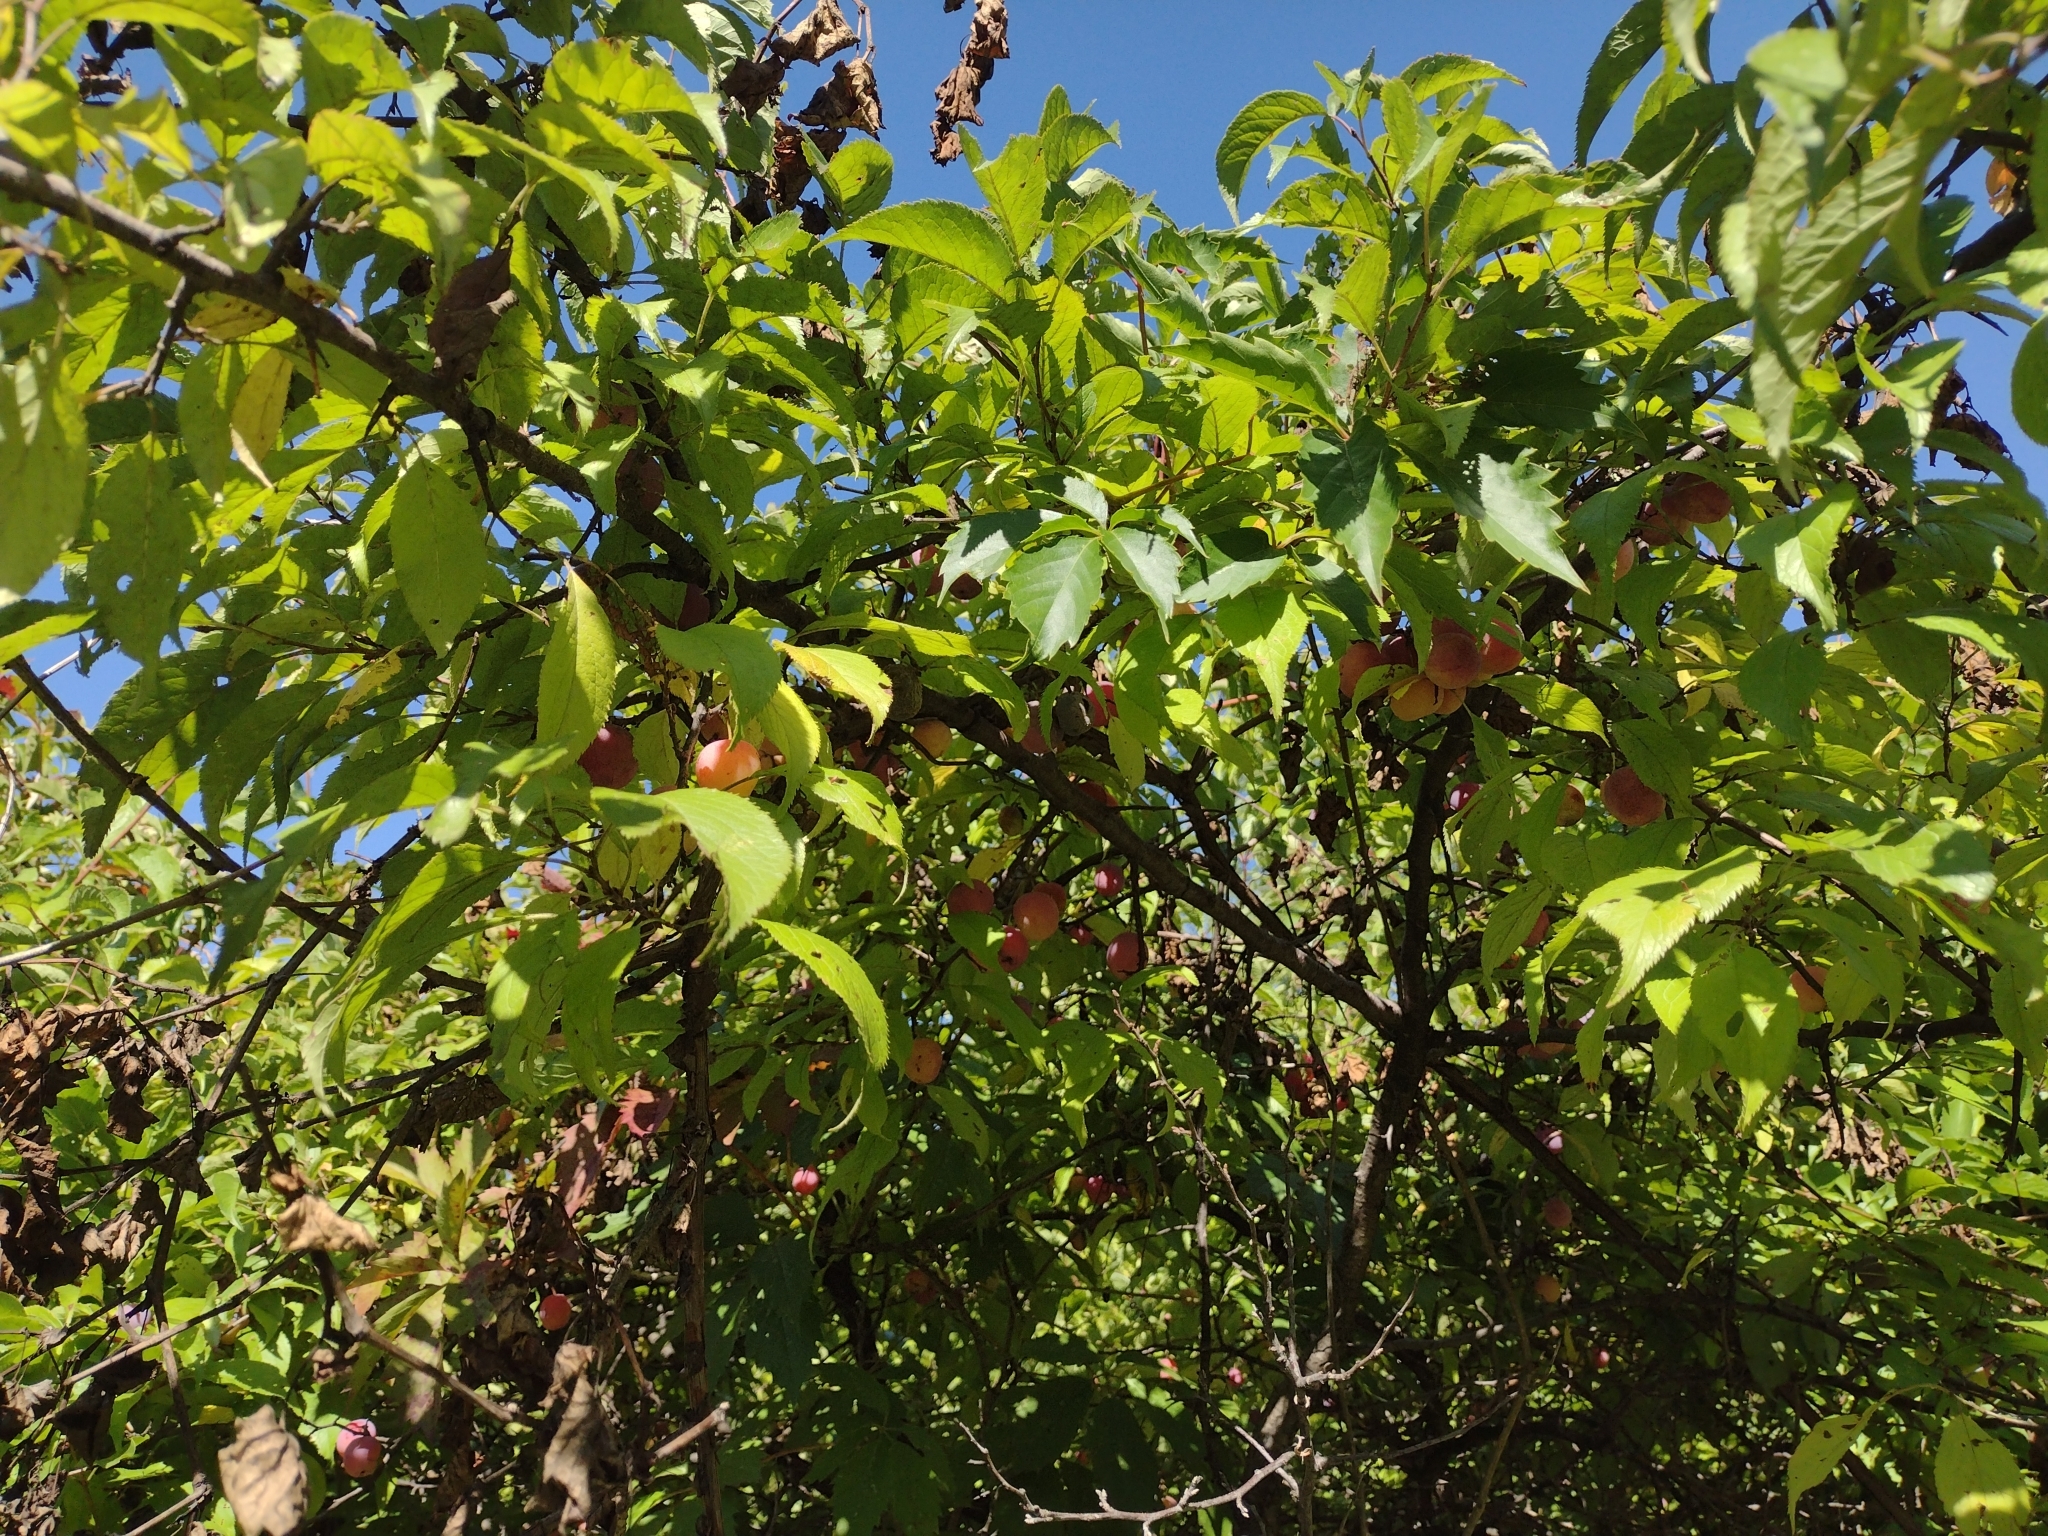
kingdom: Plantae
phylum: Tracheophyta
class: Magnoliopsida
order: Rosales
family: Rosaceae
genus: Prunus
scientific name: Prunus americana
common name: American plum
